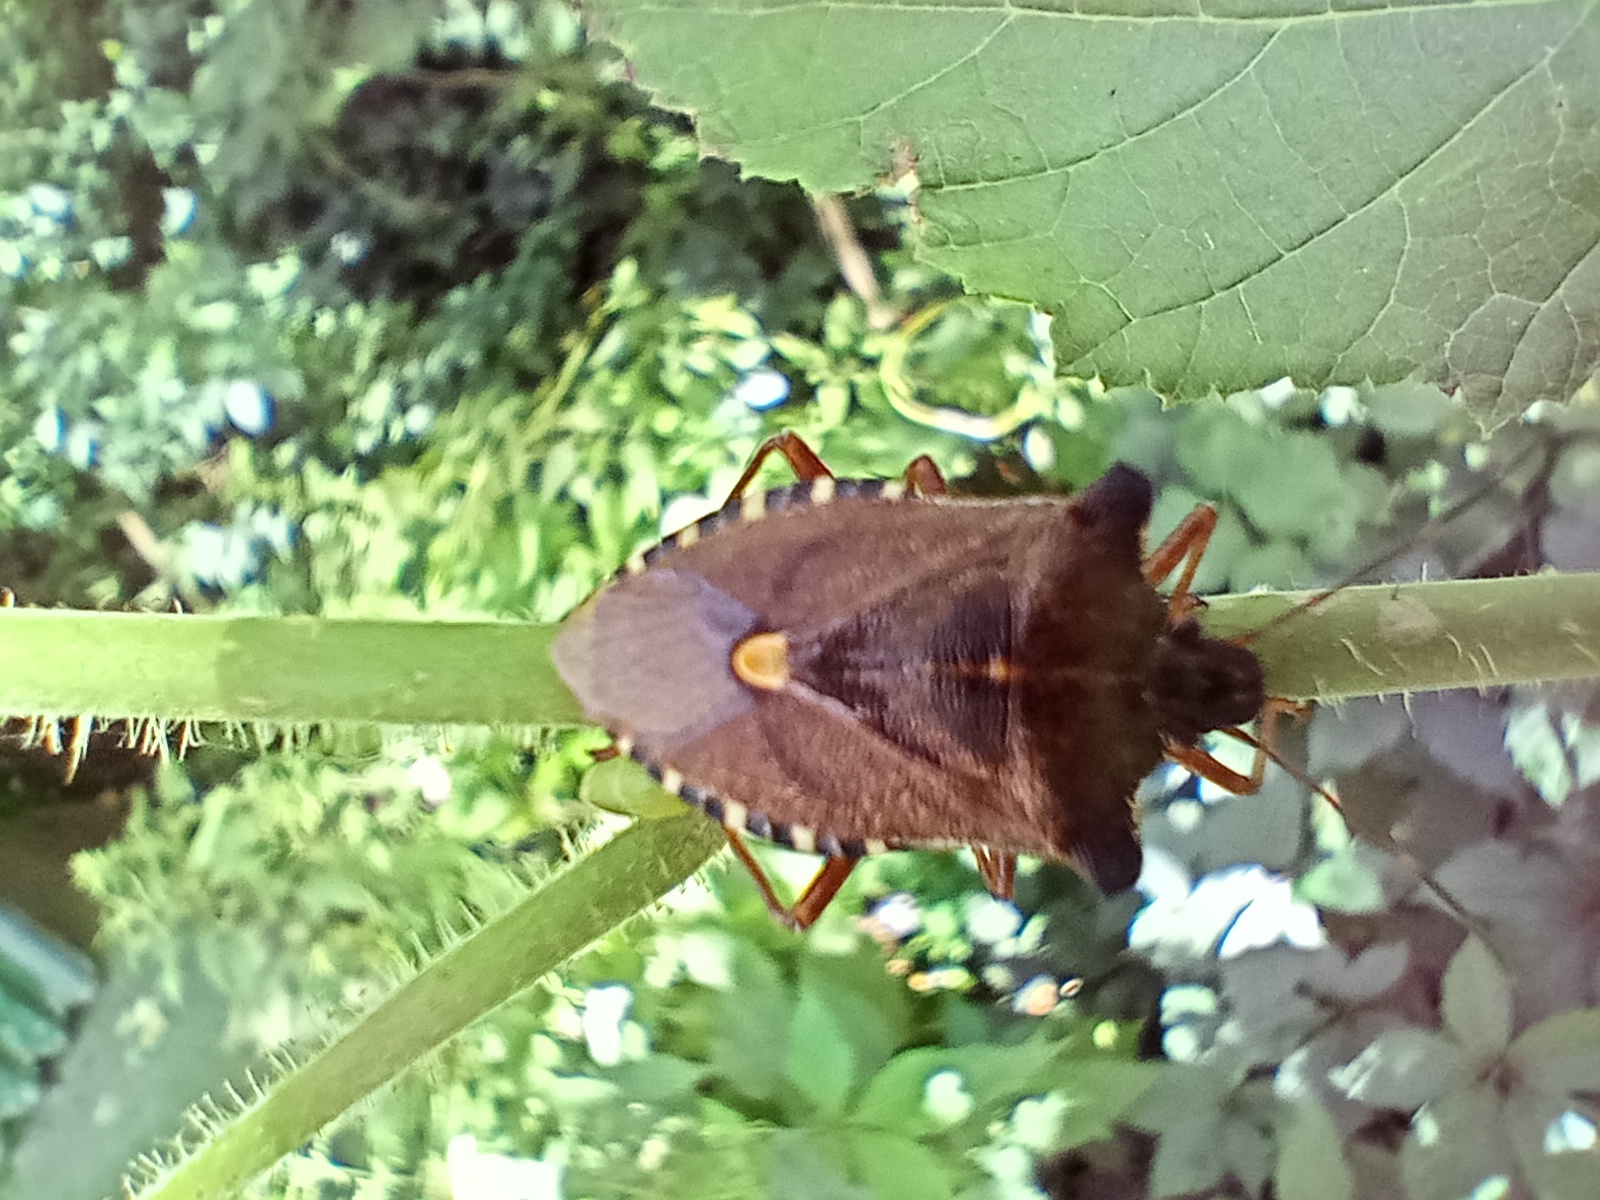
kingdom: Animalia
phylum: Arthropoda
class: Insecta
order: Hemiptera
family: Pentatomidae
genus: Pentatoma
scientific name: Pentatoma rufipes
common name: Forest bug
